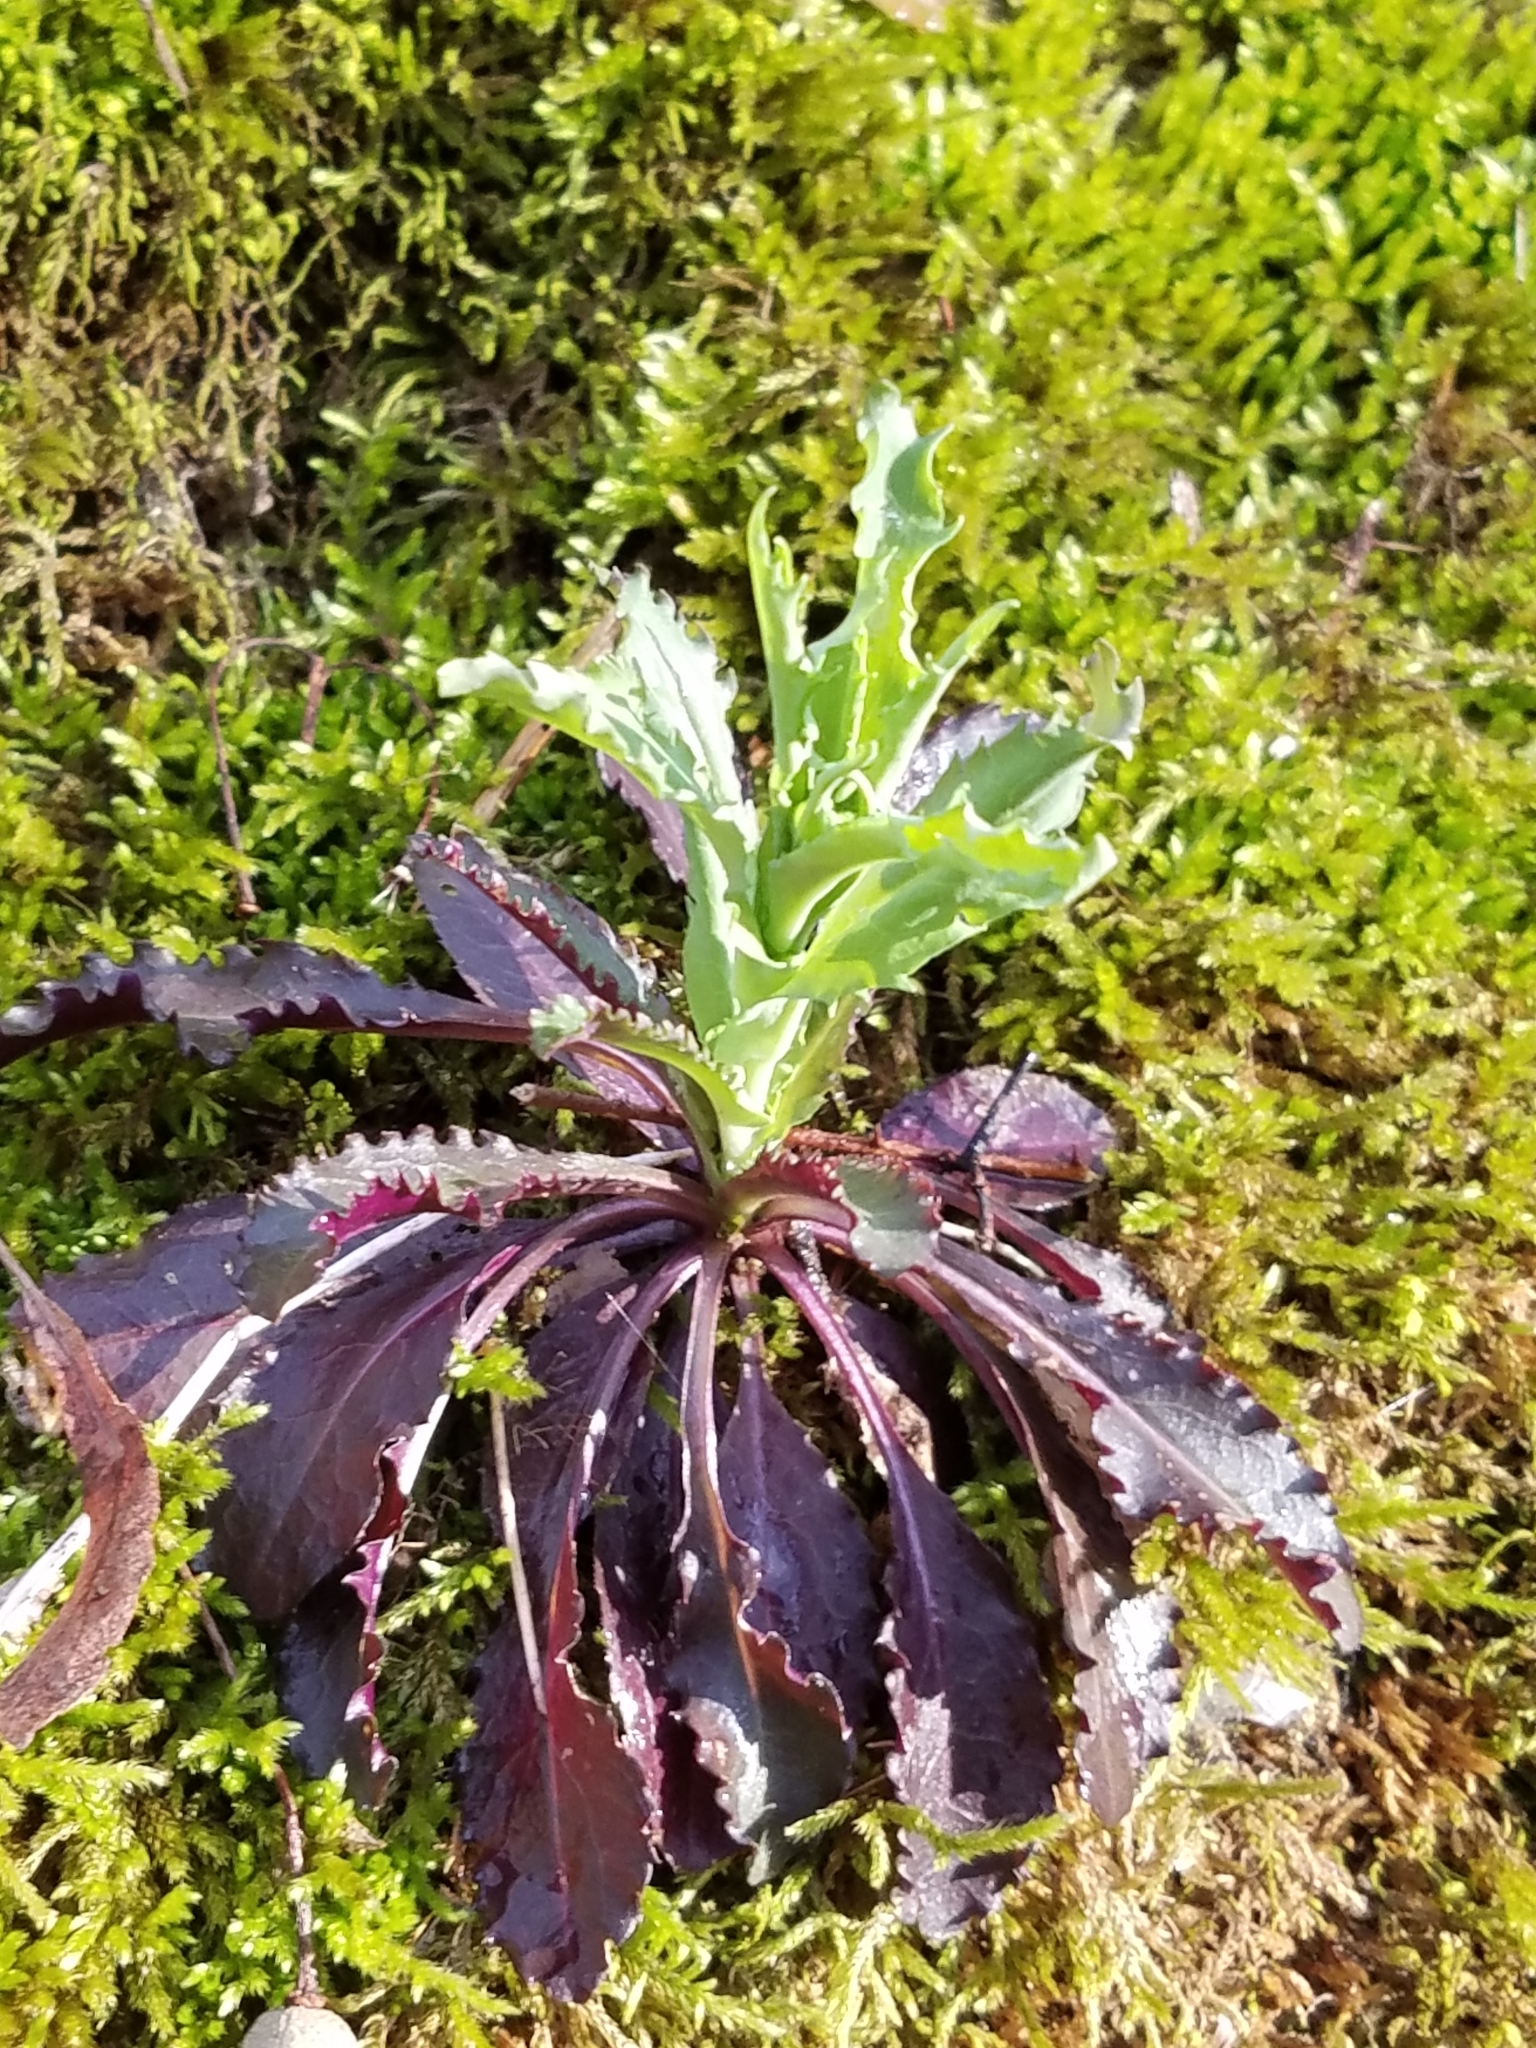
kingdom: Plantae
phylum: Tracheophyta
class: Magnoliopsida
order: Brassicales
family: Brassicaceae
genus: Borodinia
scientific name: Borodinia laevigata
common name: Smooth rockcress
